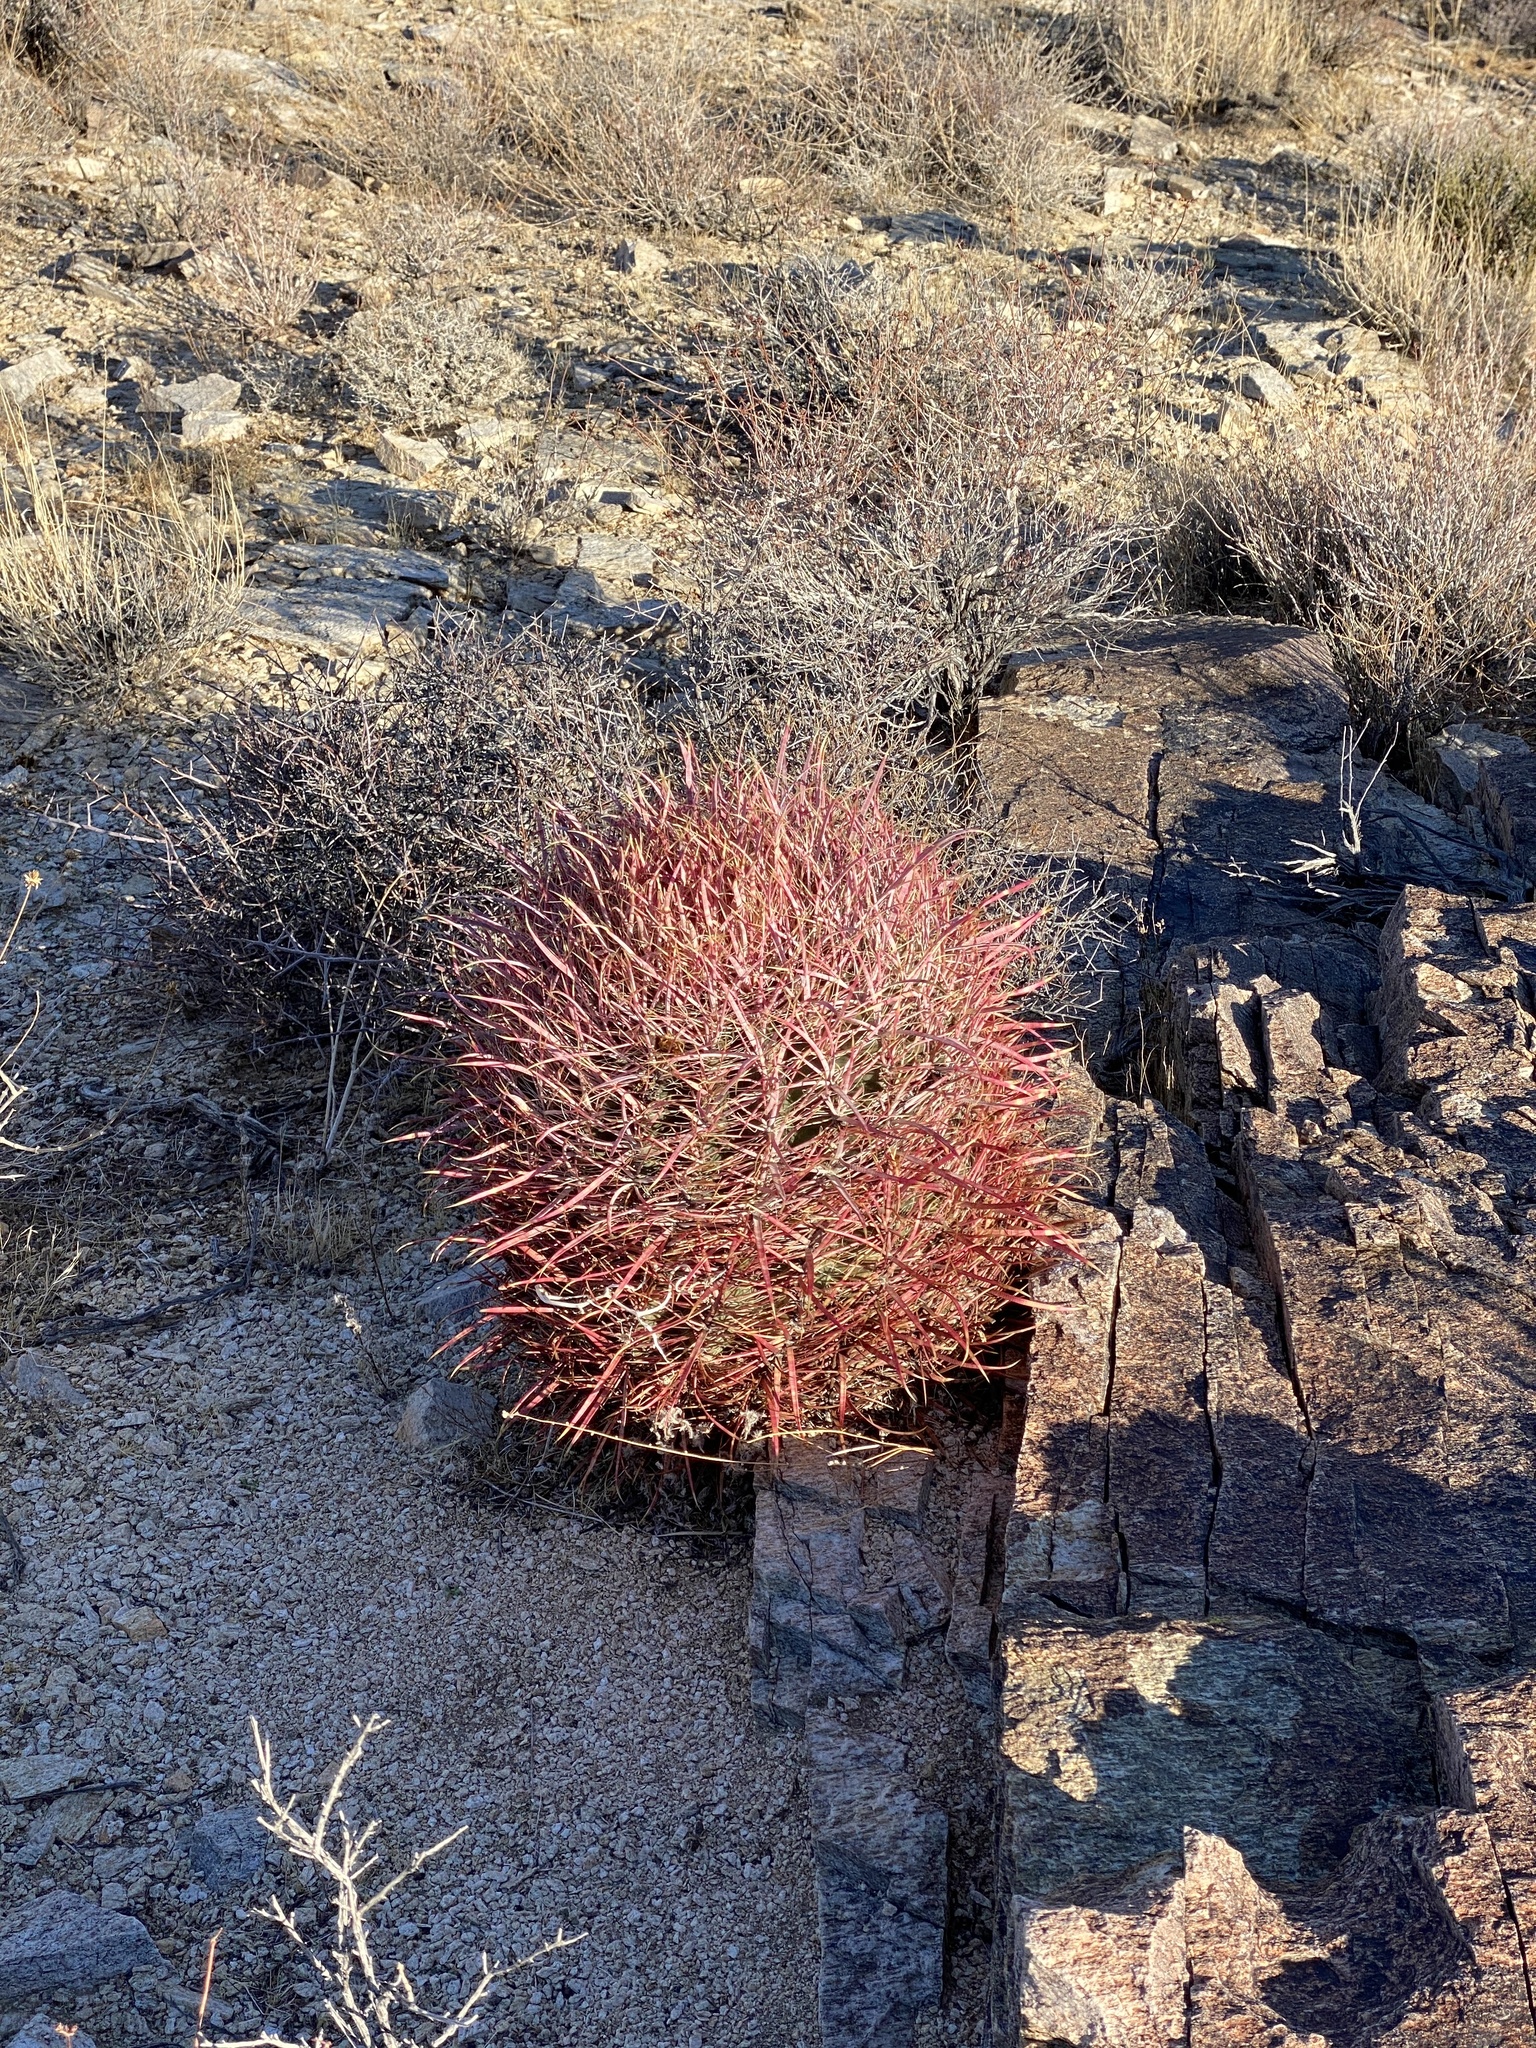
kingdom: Plantae
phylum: Tracheophyta
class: Magnoliopsida
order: Caryophyllales
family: Cactaceae
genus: Ferocactus
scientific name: Ferocactus cylindraceus
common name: California barrel cactus
